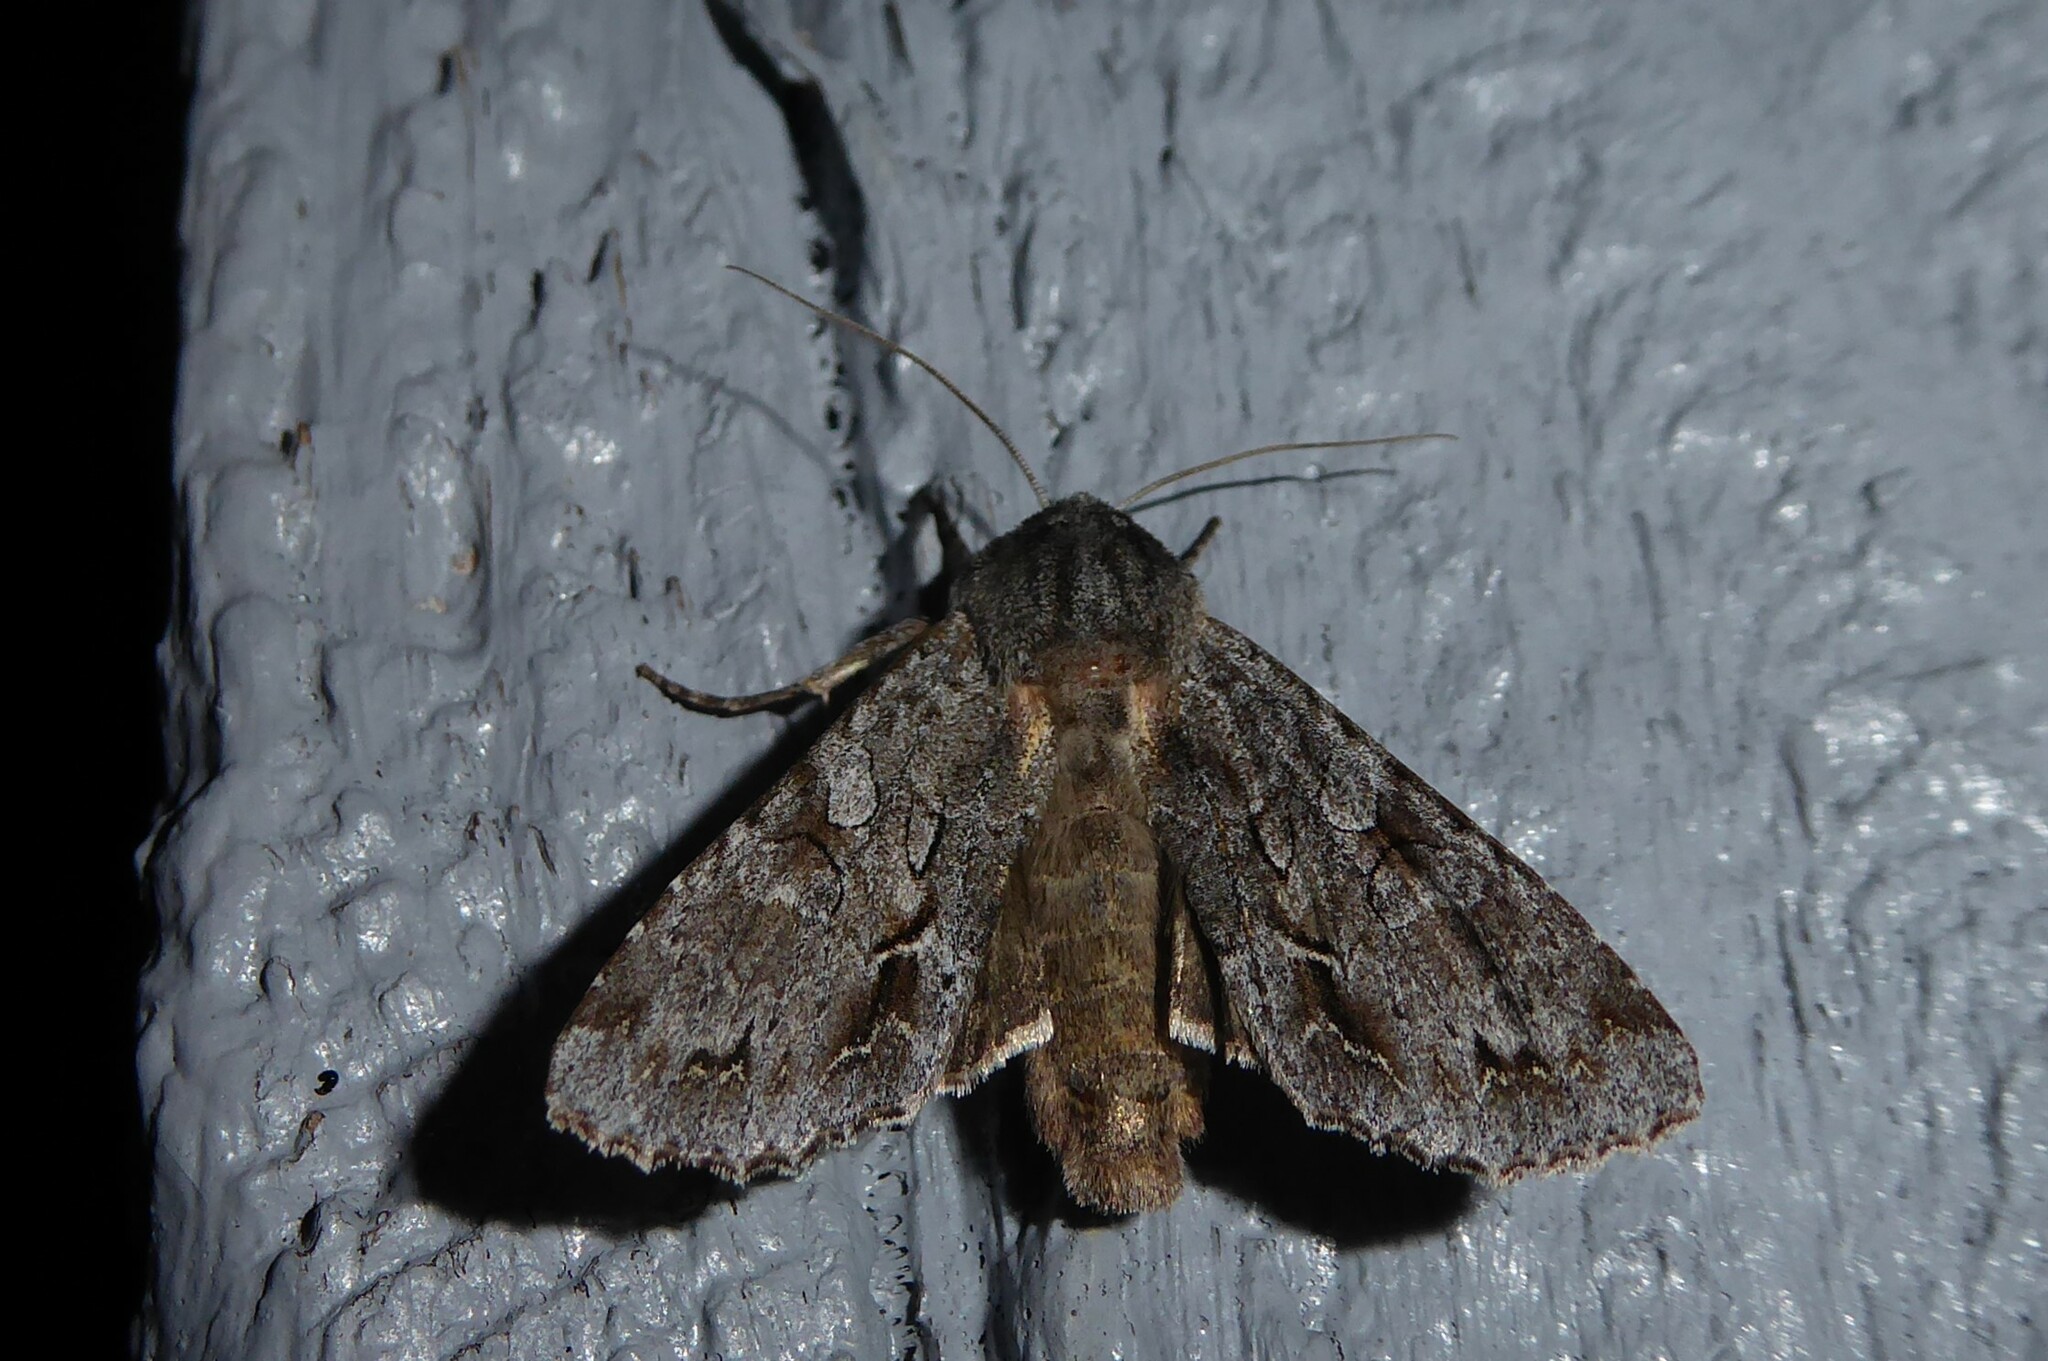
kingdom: Animalia
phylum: Arthropoda
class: Insecta
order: Lepidoptera
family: Noctuidae
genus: Ichneutica
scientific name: Ichneutica
